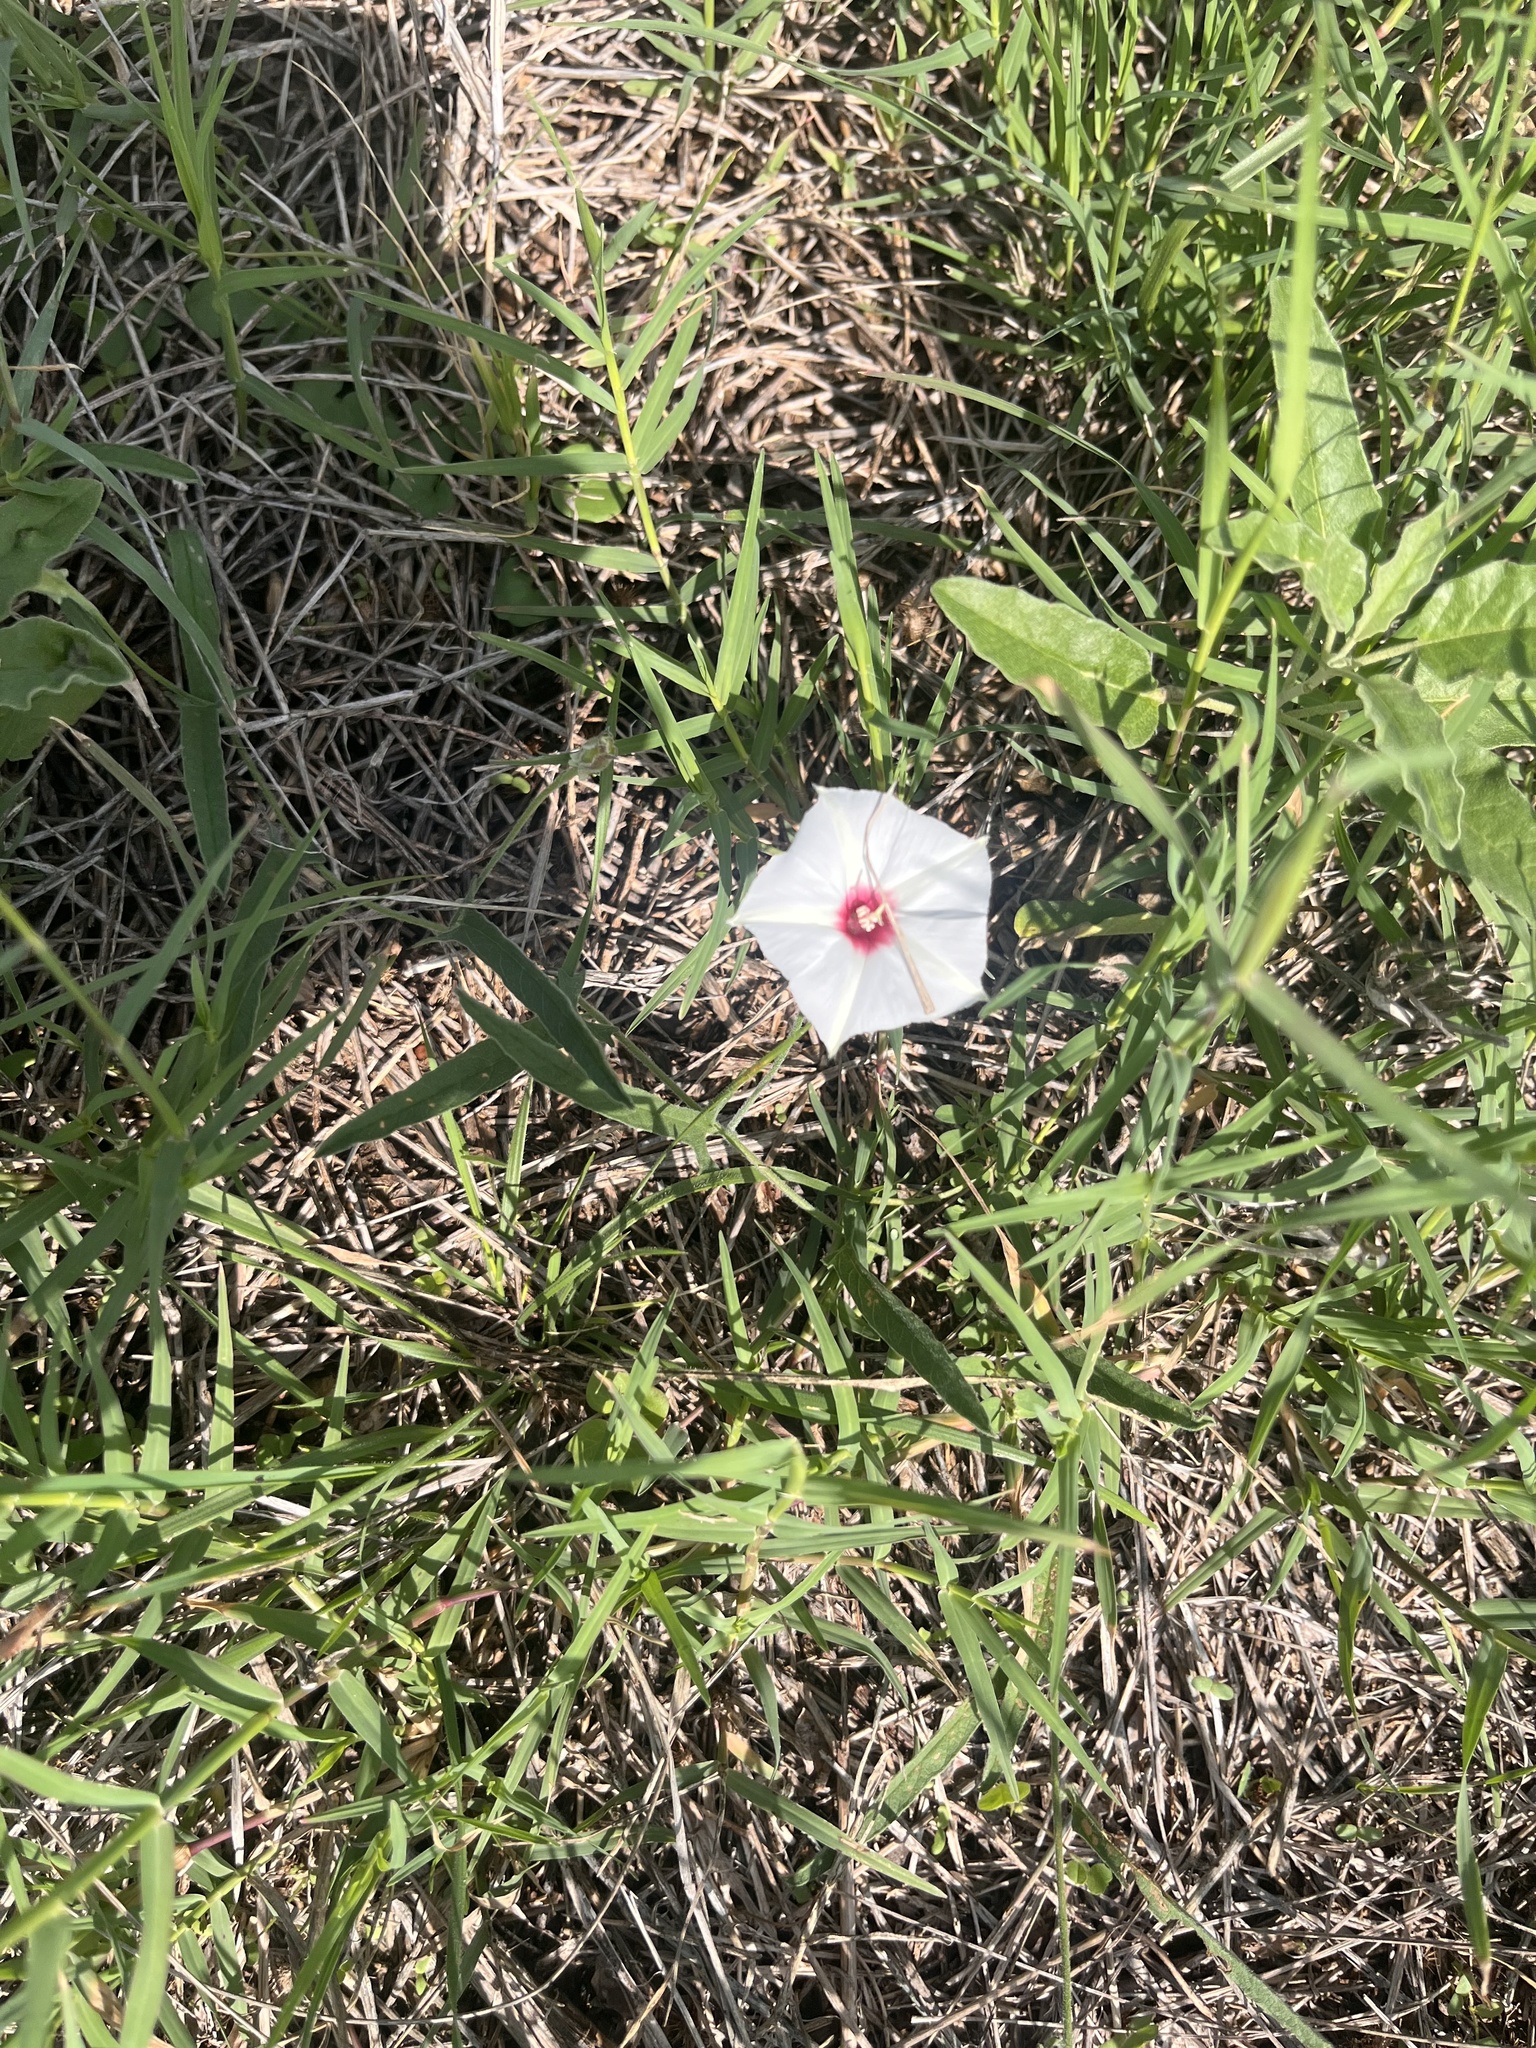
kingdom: Plantae
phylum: Tracheophyta
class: Magnoliopsida
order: Solanales
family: Convolvulaceae
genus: Convolvulus
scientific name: Convolvulus equitans
